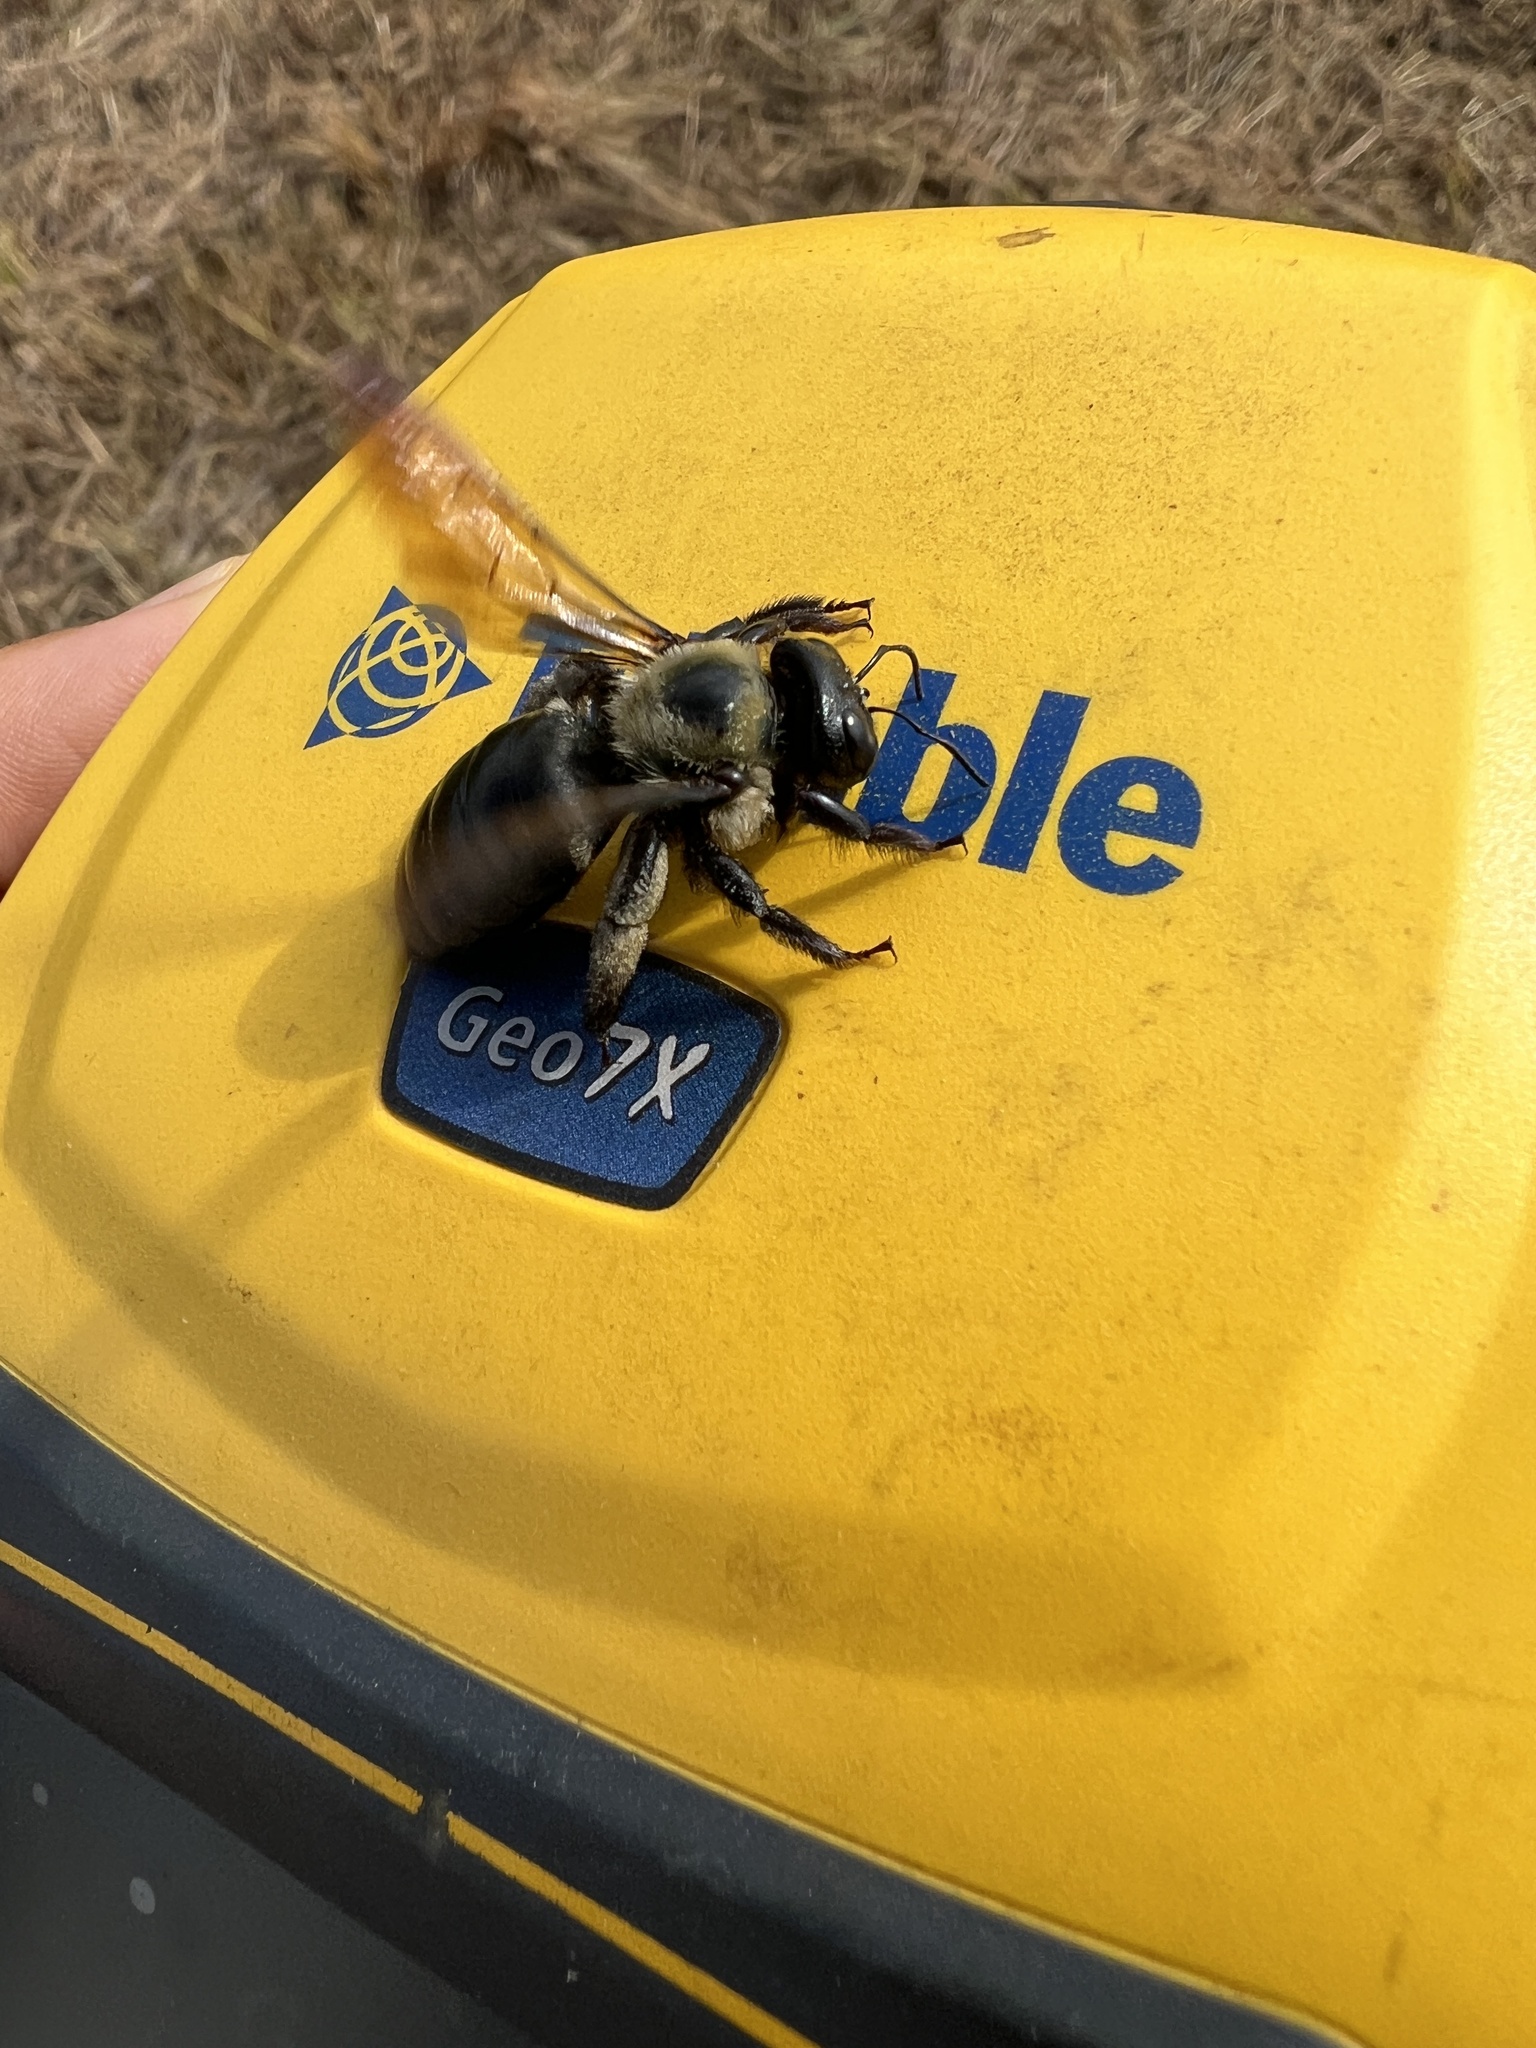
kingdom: Animalia
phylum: Arthropoda
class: Insecta
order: Hymenoptera
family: Apidae
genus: Xylocopa
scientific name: Xylocopa virginica
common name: Carpenter bee
